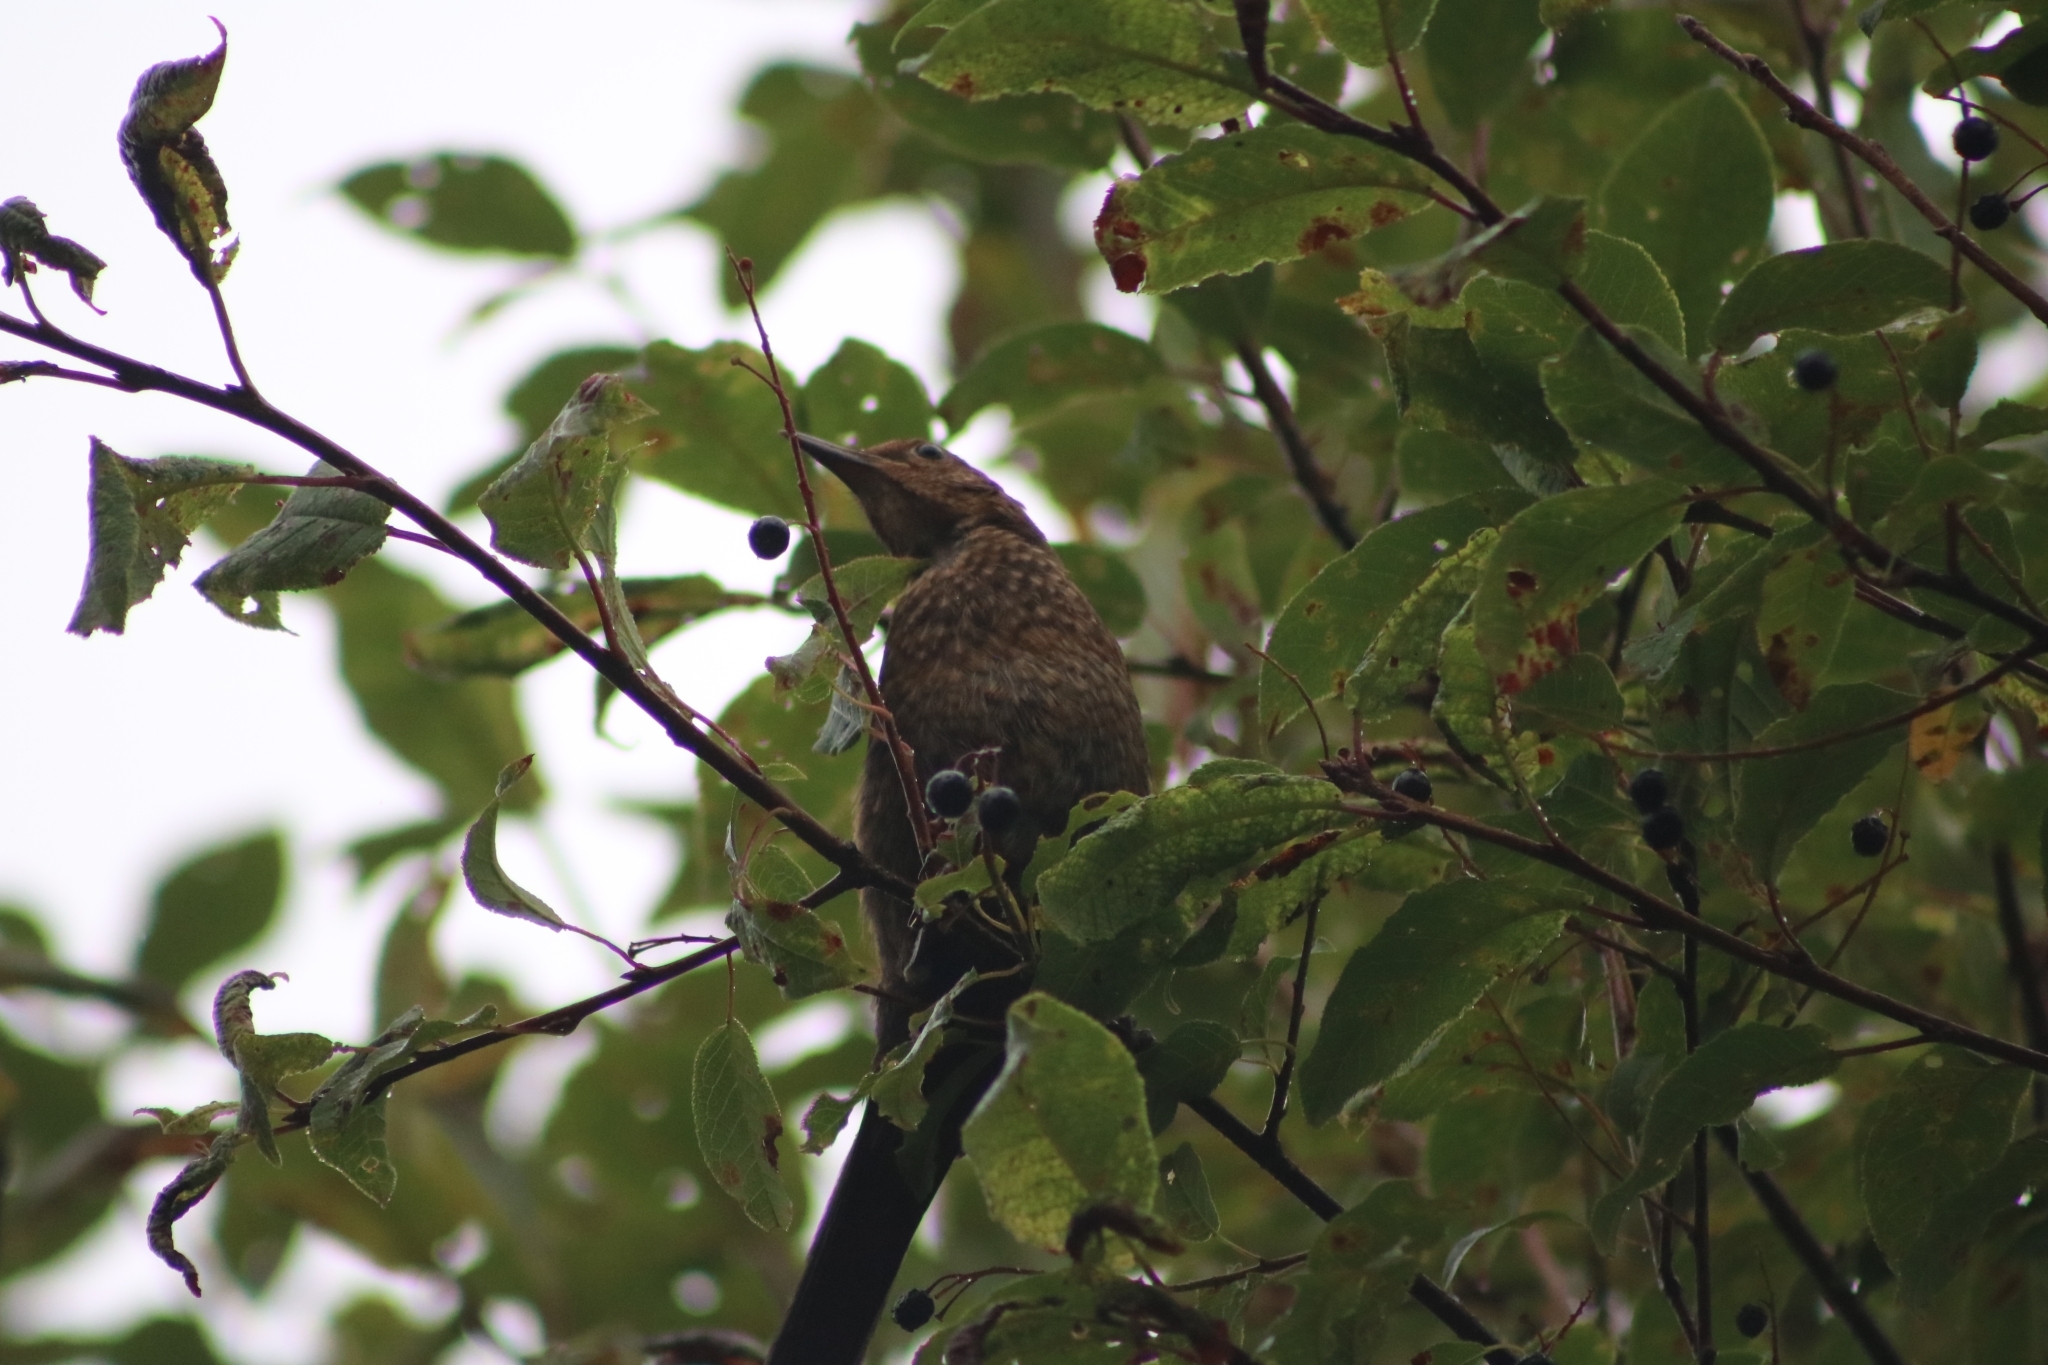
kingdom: Animalia
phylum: Chordata
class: Aves
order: Passeriformes
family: Turdidae
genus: Turdus
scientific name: Turdus merula
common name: Common blackbird
